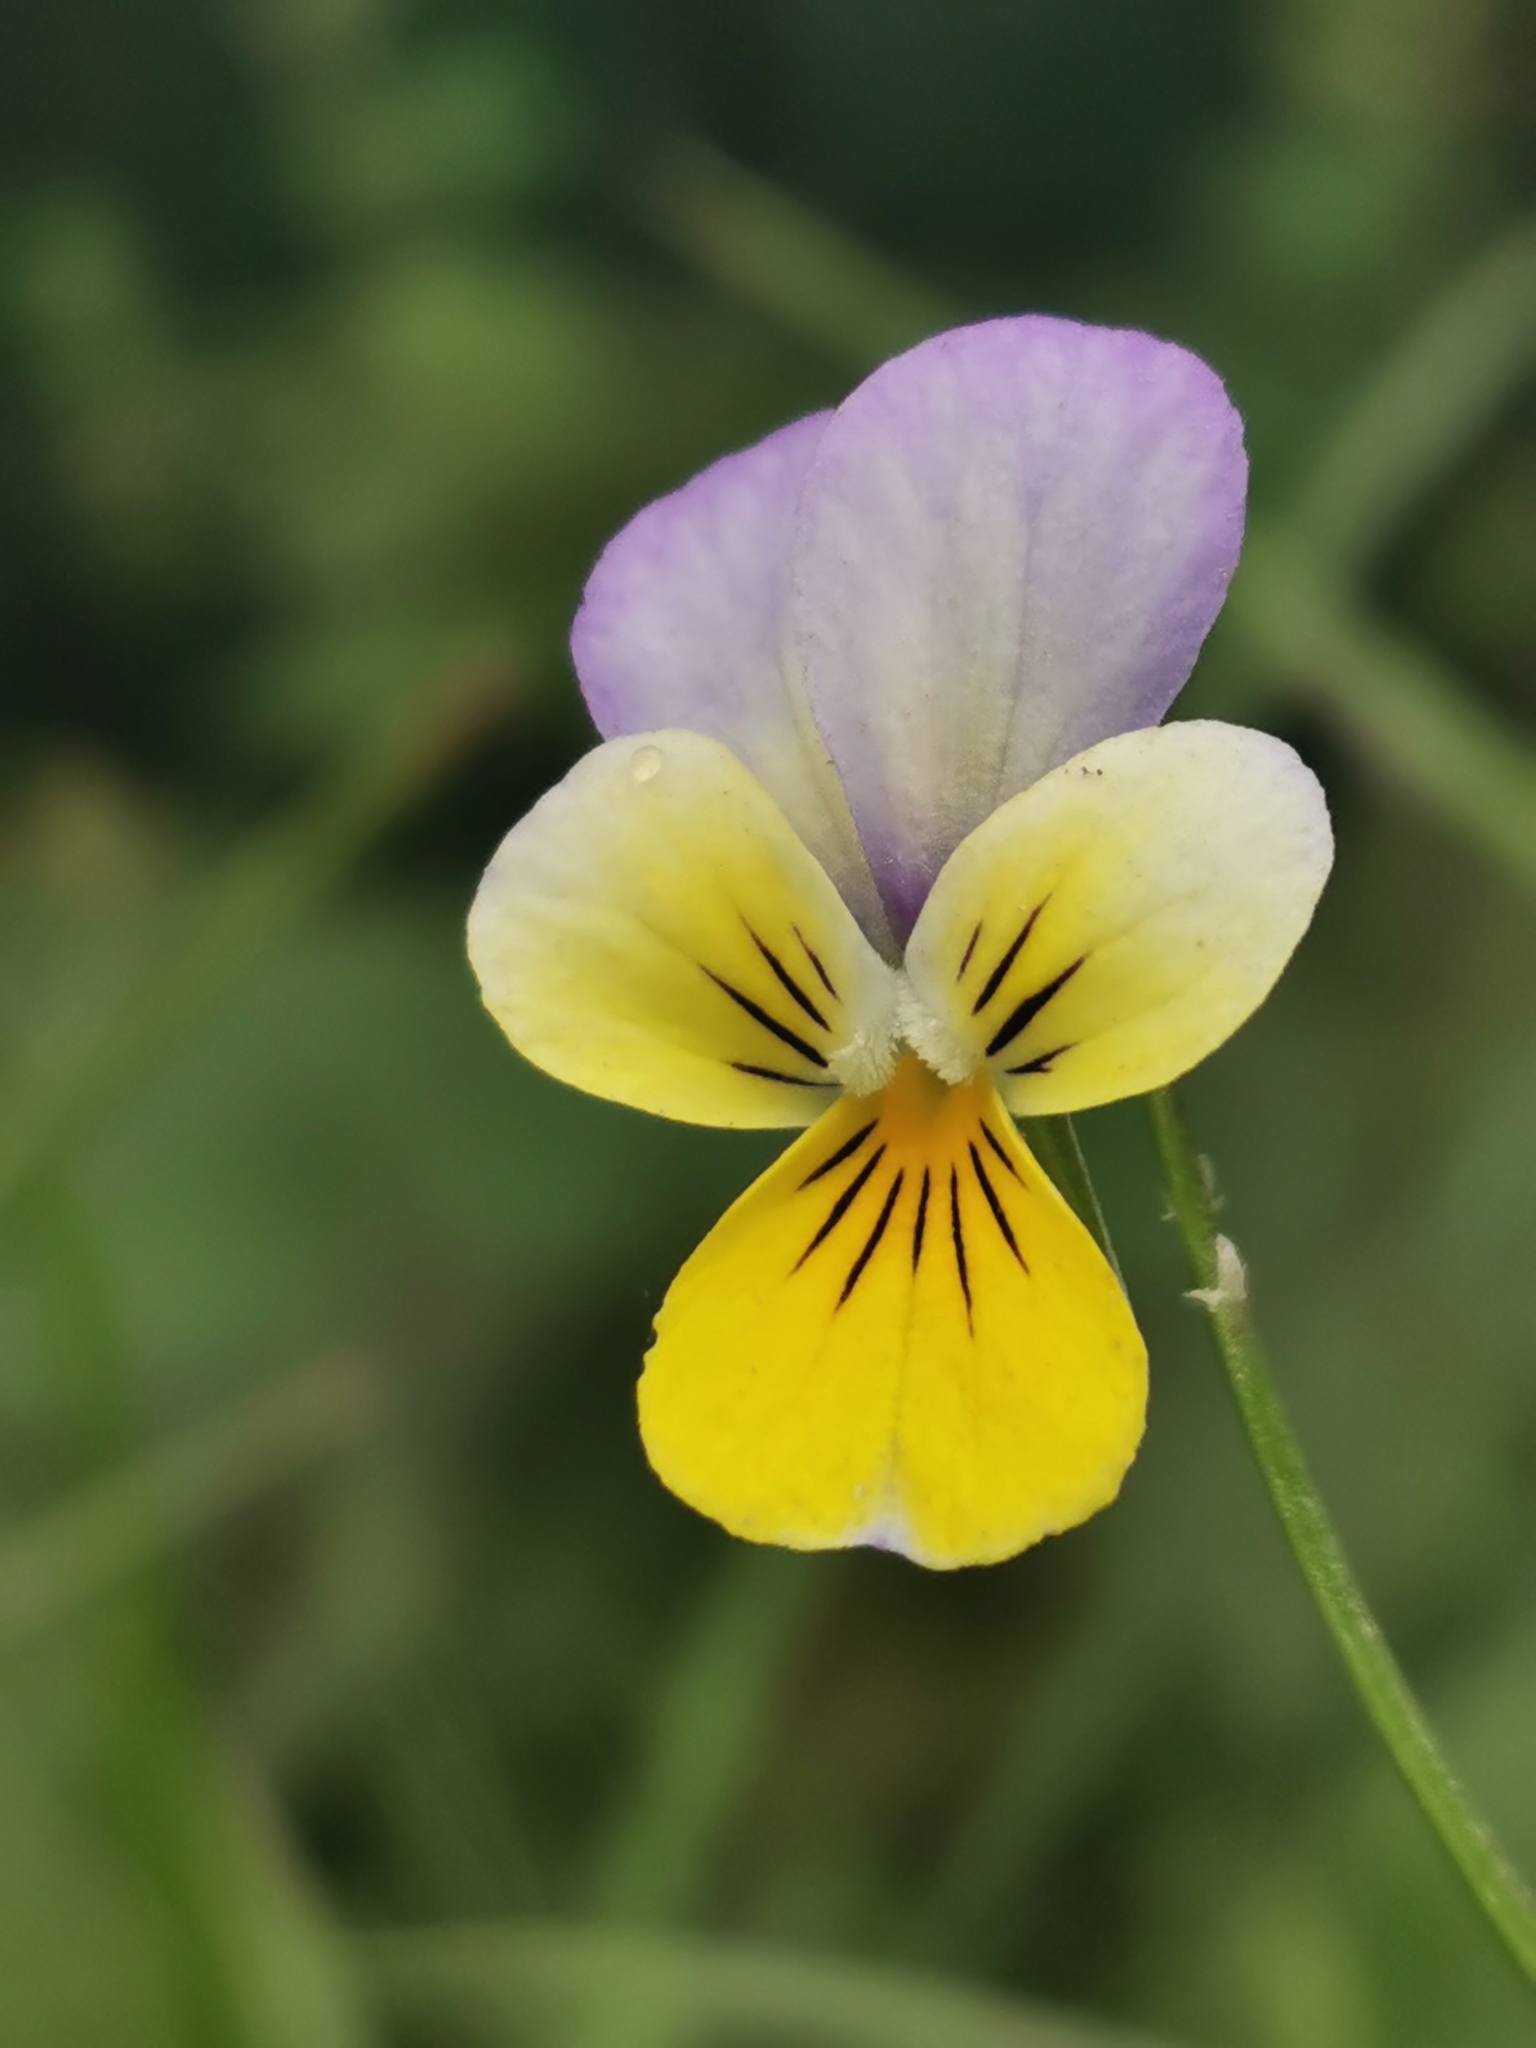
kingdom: Plantae
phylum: Tracheophyta
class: Magnoliopsida
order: Malpighiales
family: Violaceae
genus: Viola
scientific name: Viola tricolor
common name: Pansy
